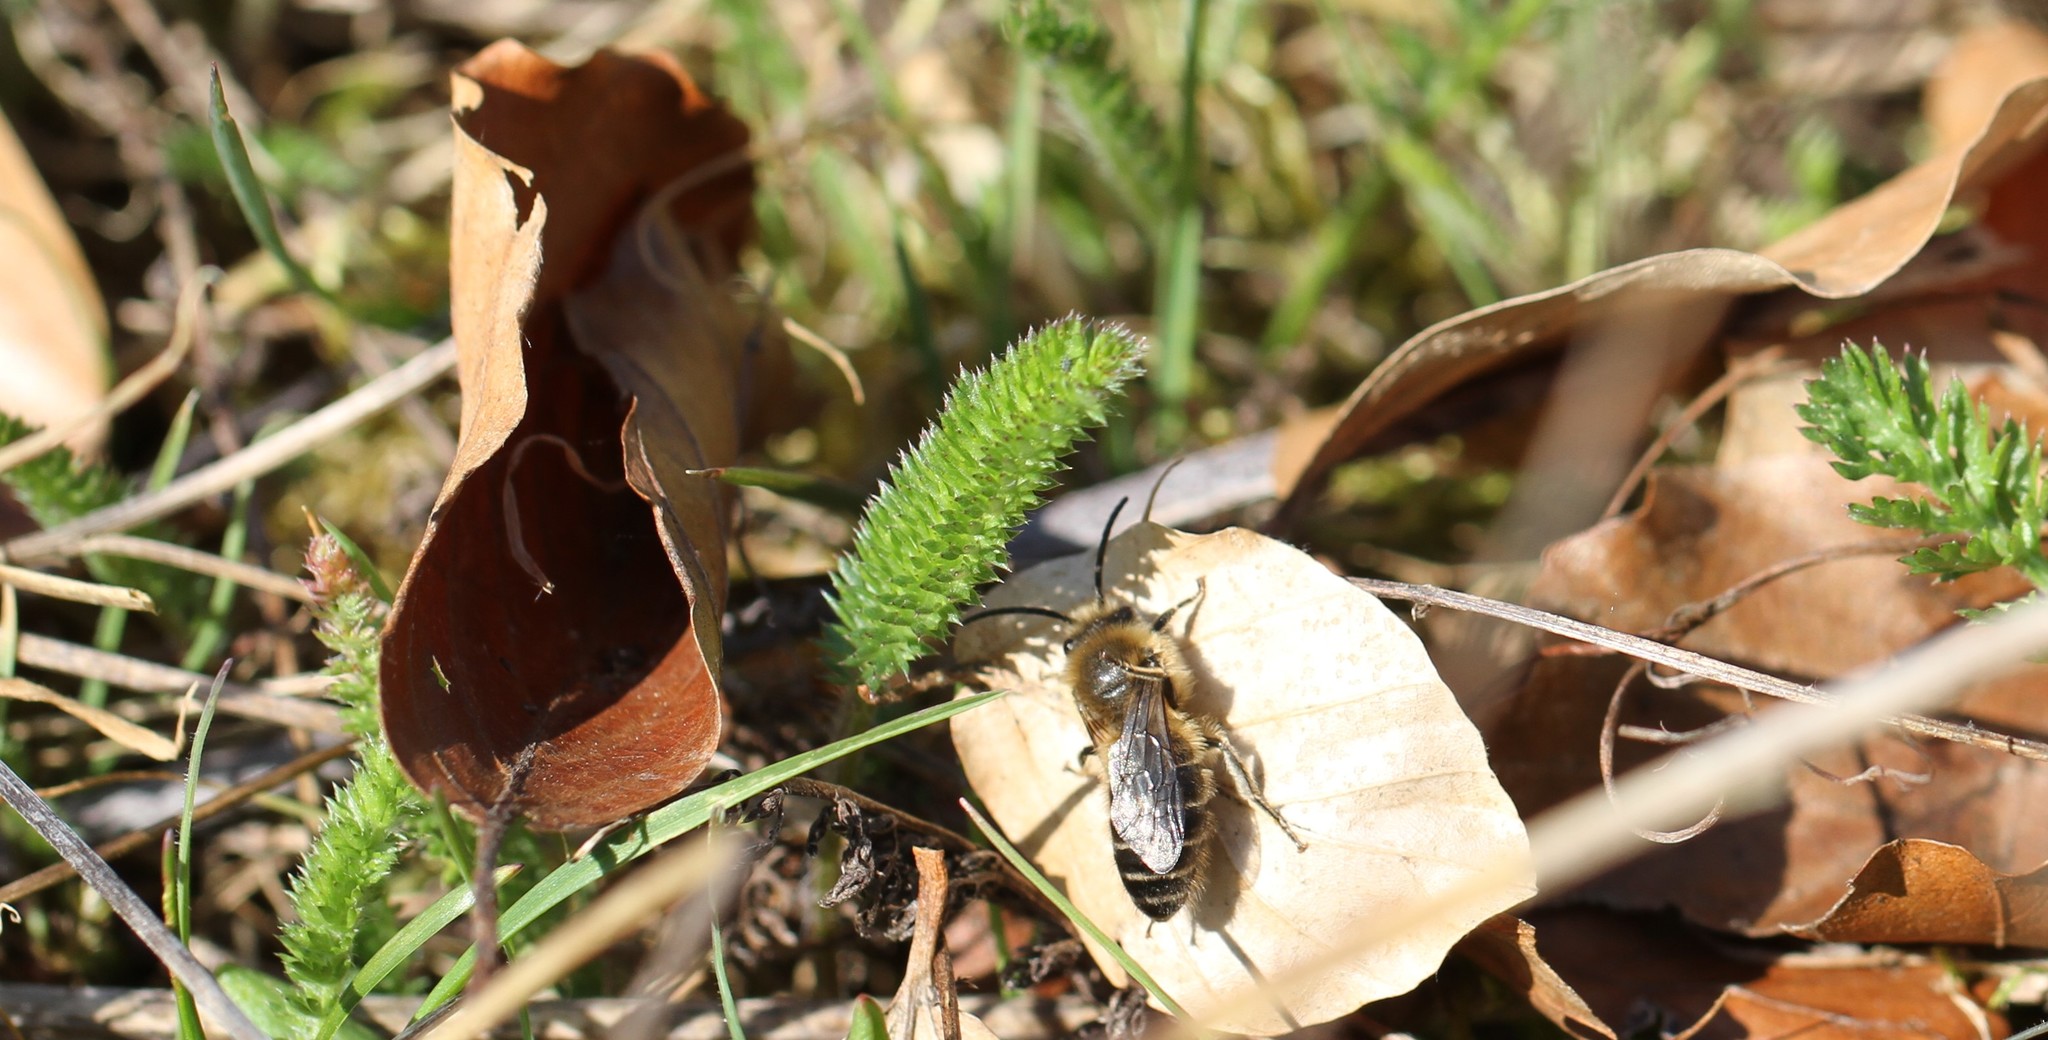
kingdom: Animalia
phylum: Arthropoda
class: Insecta
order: Hymenoptera
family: Colletidae
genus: Colletes
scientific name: Colletes cunicularius
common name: Early colletes
